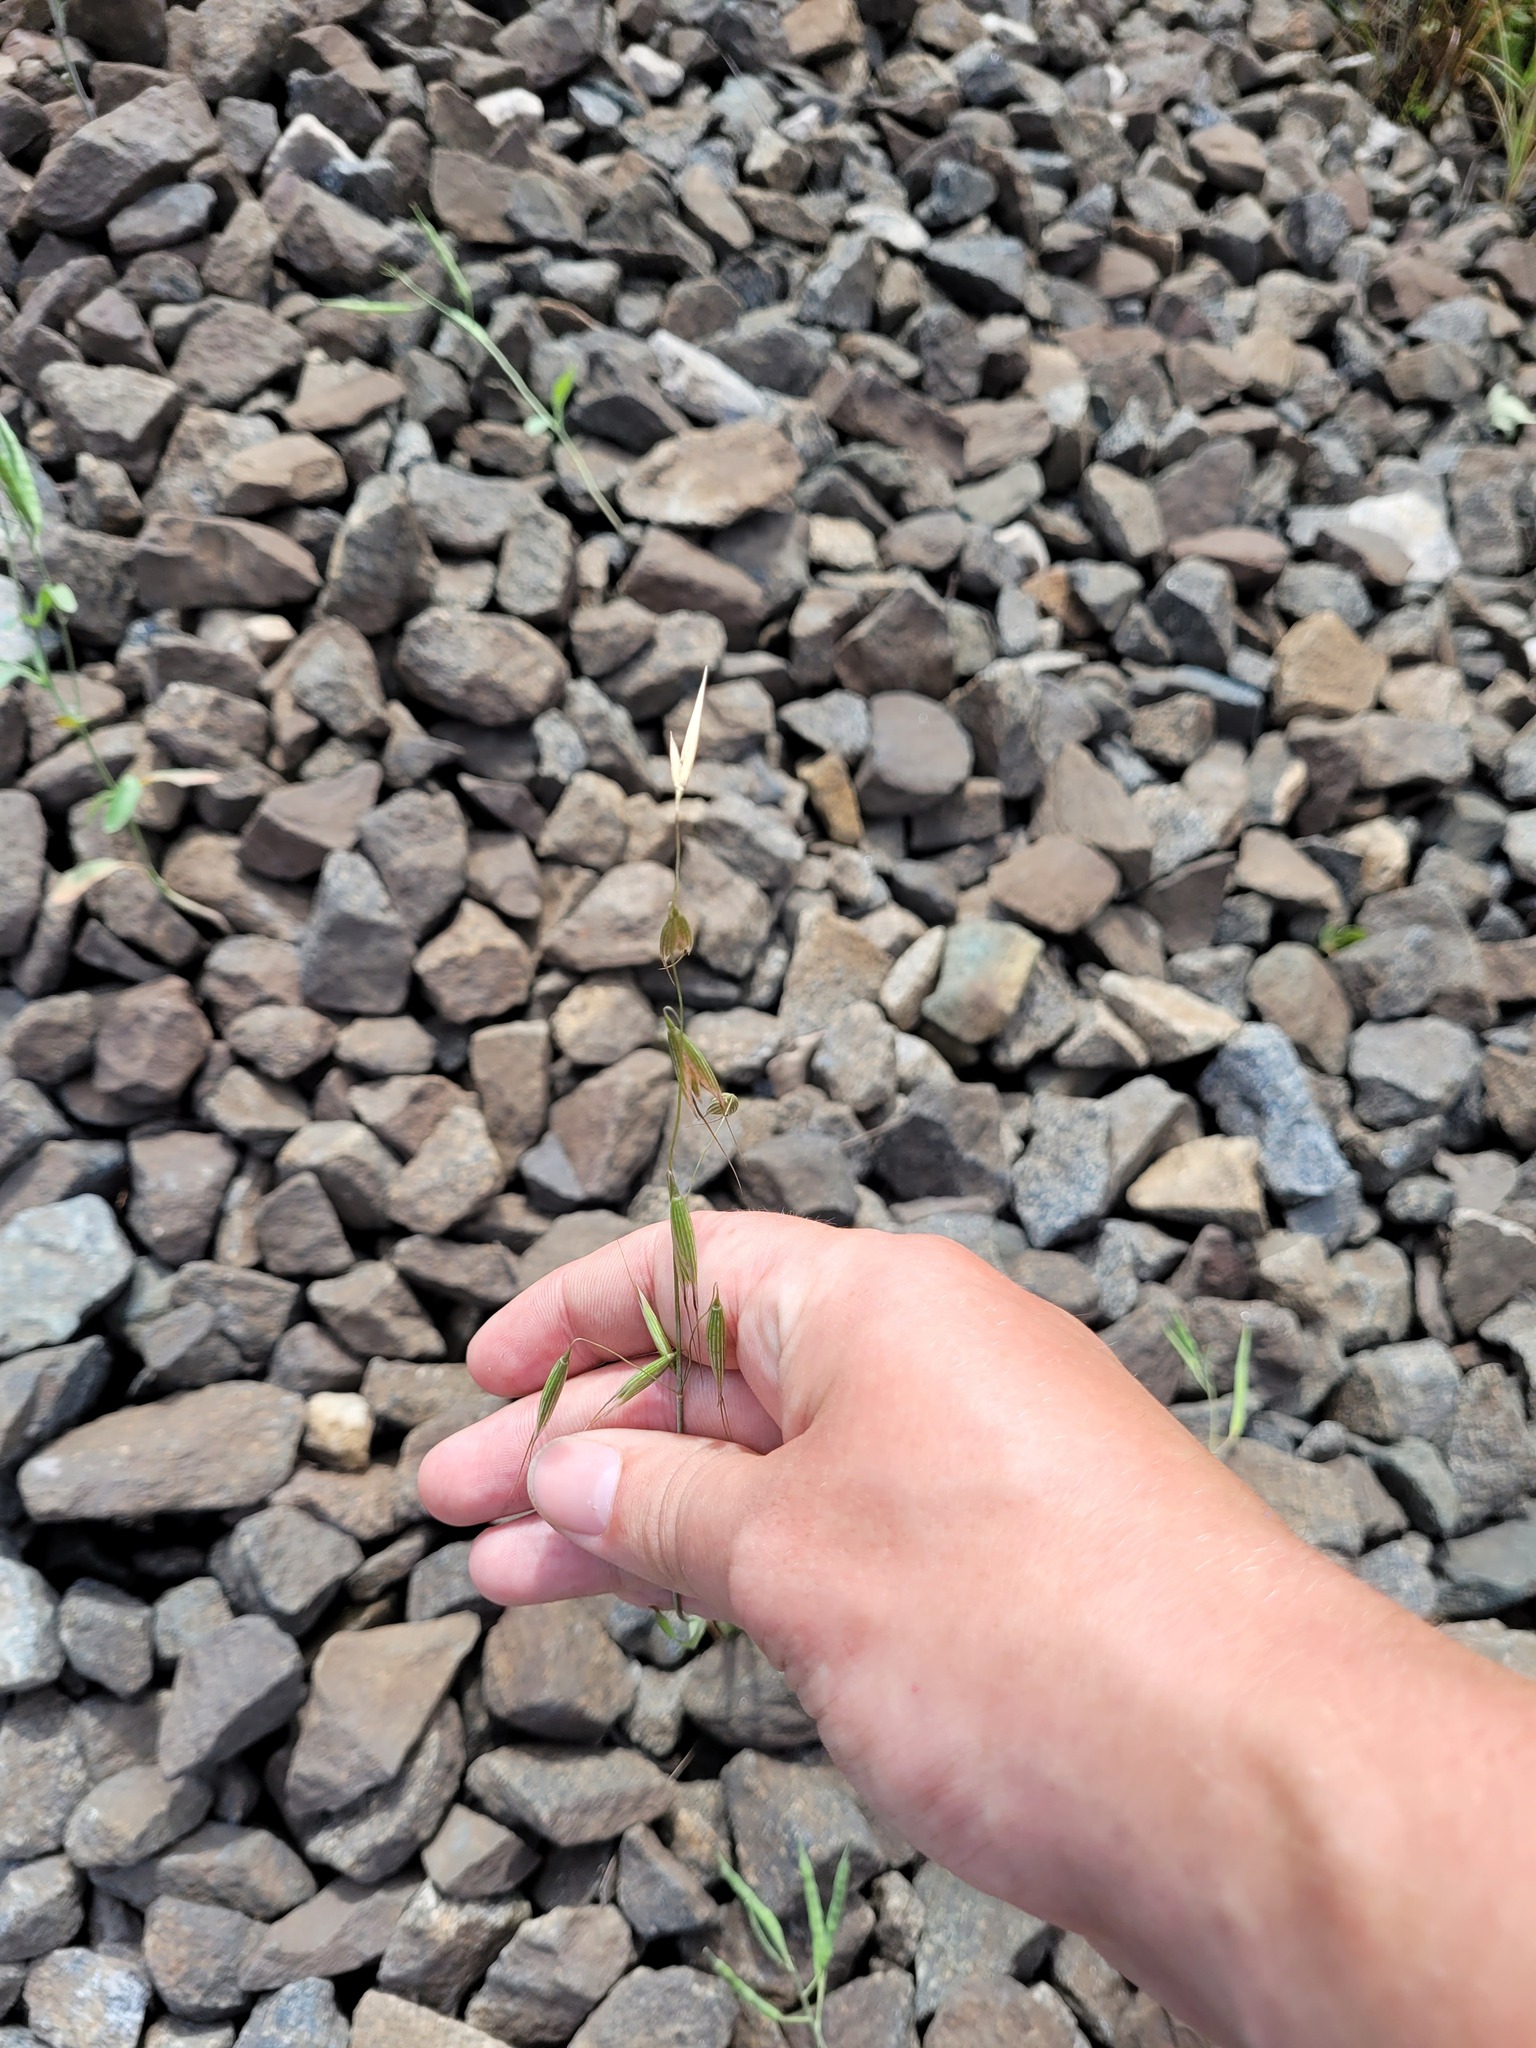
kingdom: Plantae
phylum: Tracheophyta
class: Liliopsida
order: Poales
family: Poaceae
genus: Avena
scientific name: Avena fatua
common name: Wild oat
